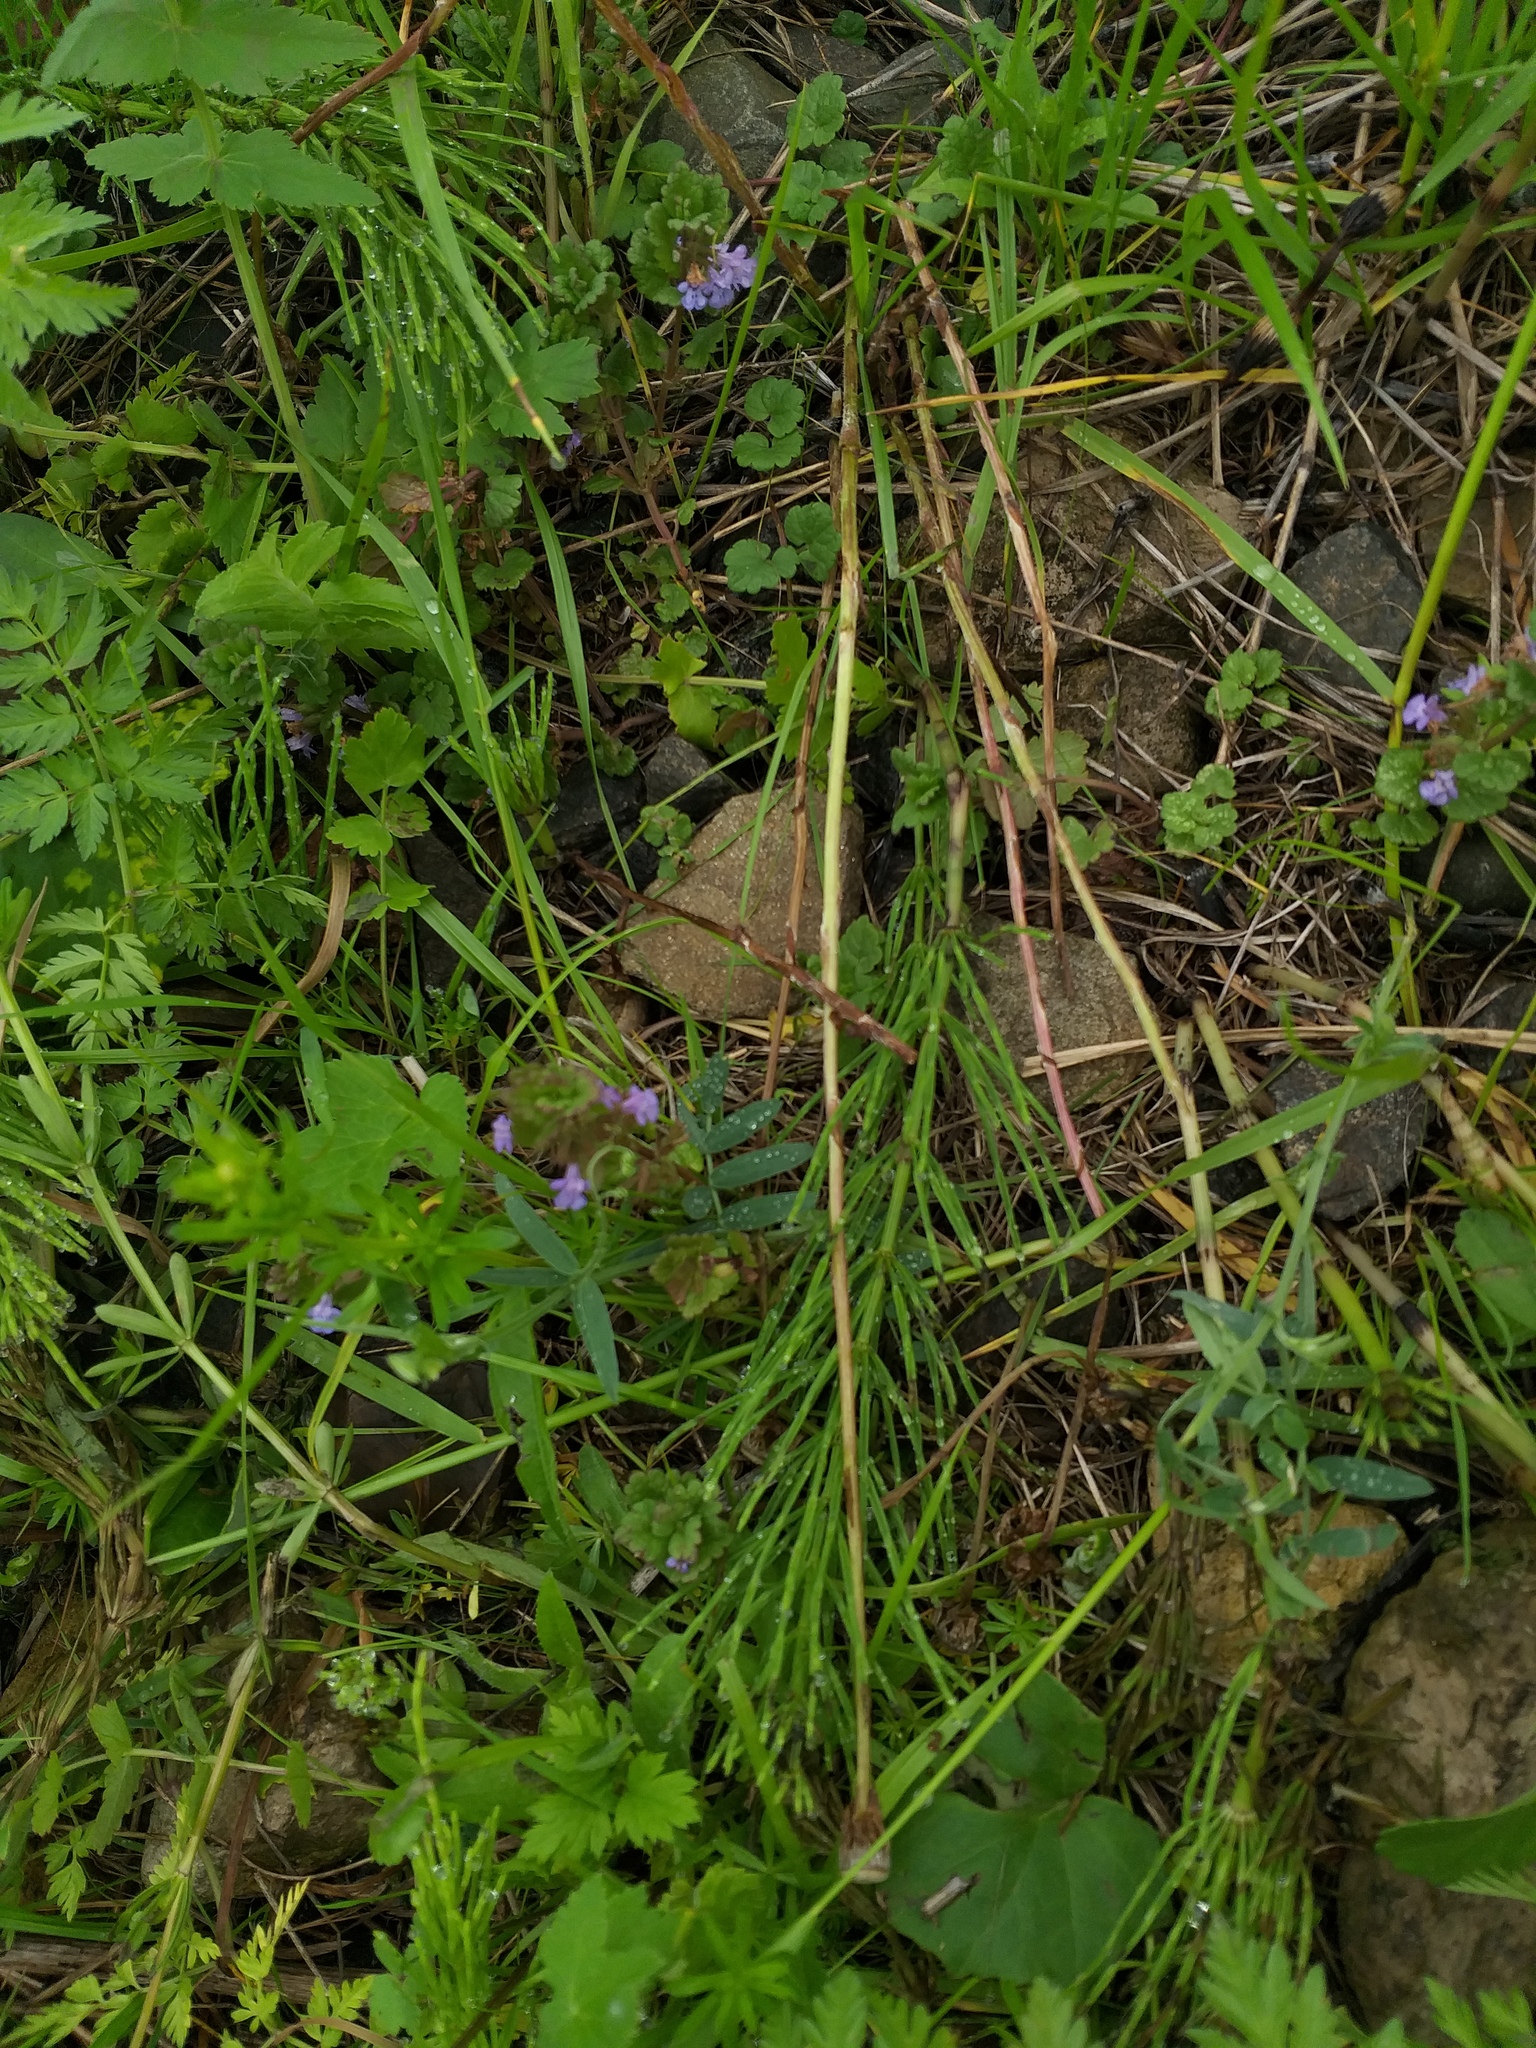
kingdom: Plantae
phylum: Tracheophyta
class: Polypodiopsida
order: Equisetales
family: Equisetaceae
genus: Equisetum
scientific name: Equisetum arvense
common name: Field horsetail
